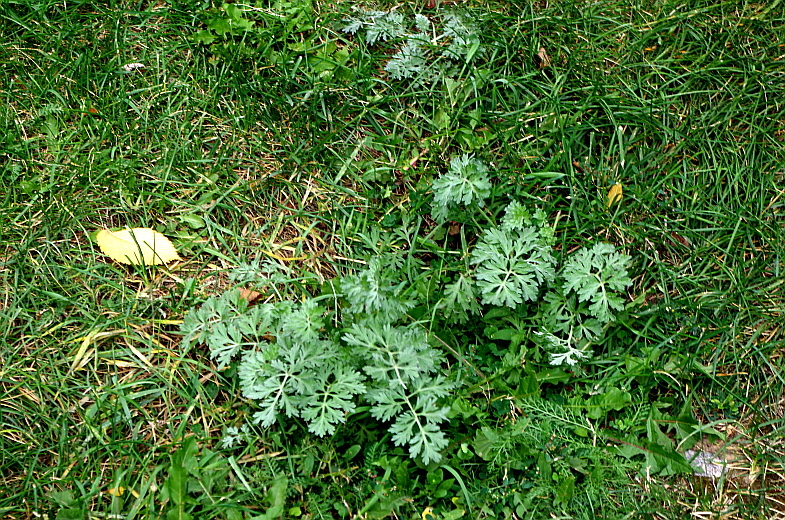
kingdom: Plantae
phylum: Tracheophyta
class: Magnoliopsida
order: Asterales
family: Asteraceae
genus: Artemisia
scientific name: Artemisia absinthium
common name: Wormwood
